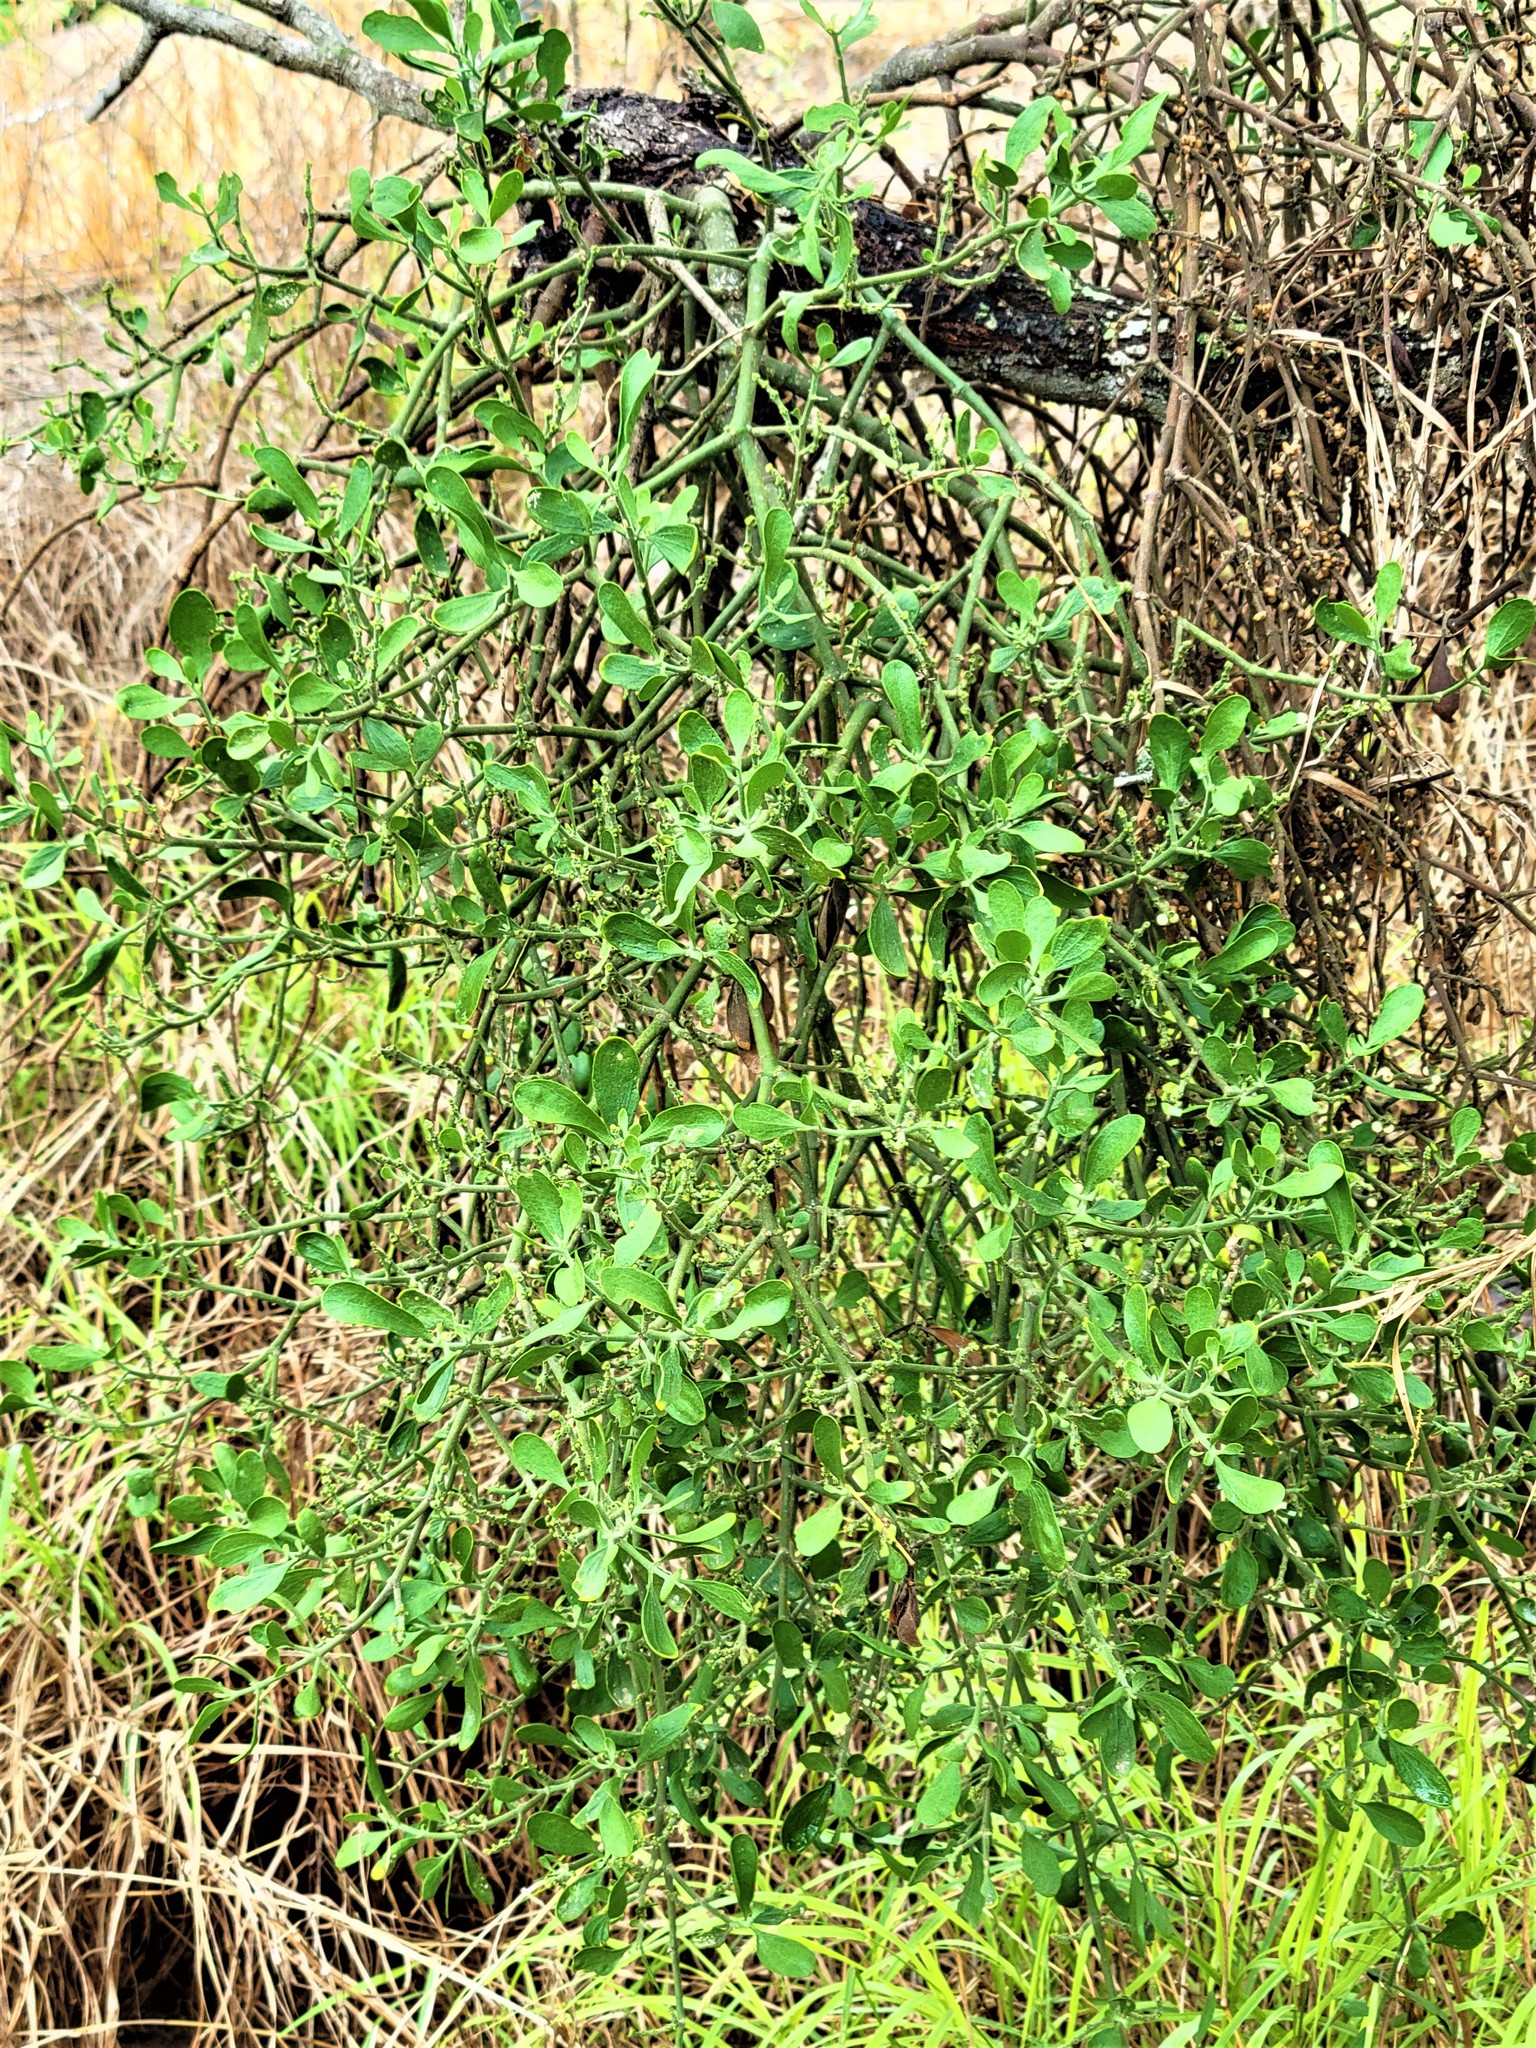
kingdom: Plantae
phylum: Tracheophyta
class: Magnoliopsida
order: Santalales
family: Viscaceae
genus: Phoradendron
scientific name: Phoradendron leucarpum
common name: Pacific mistletoe
